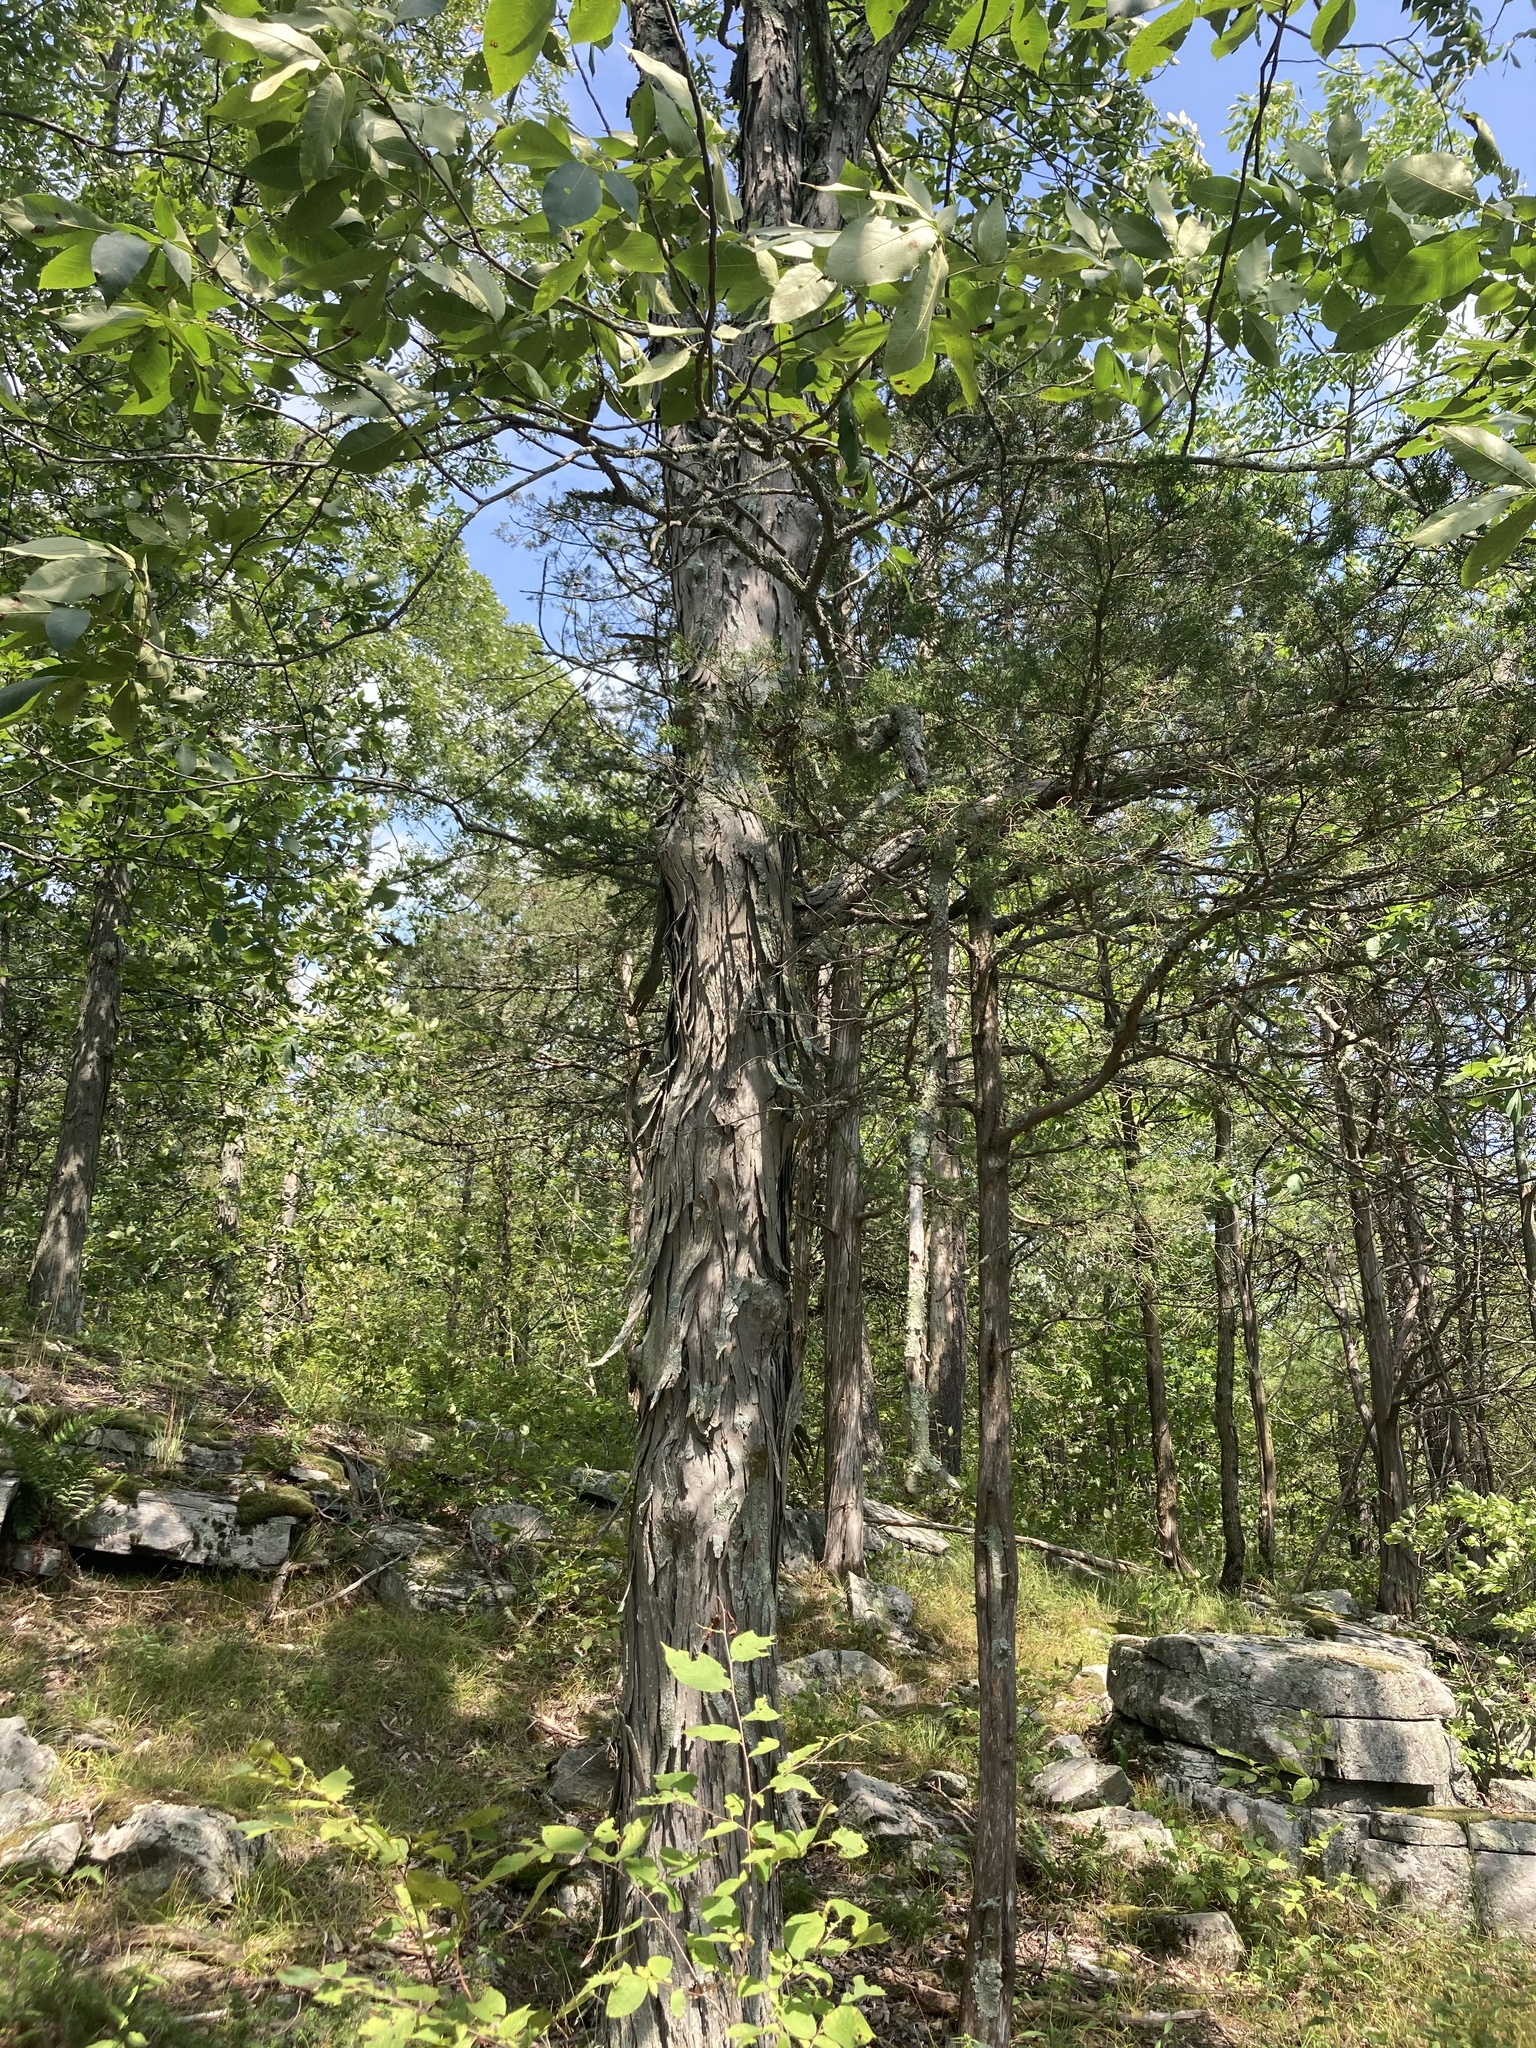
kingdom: Plantae
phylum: Tracheophyta
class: Magnoliopsida
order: Fagales
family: Juglandaceae
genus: Carya
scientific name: Carya ovata
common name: Shagbark hickory
